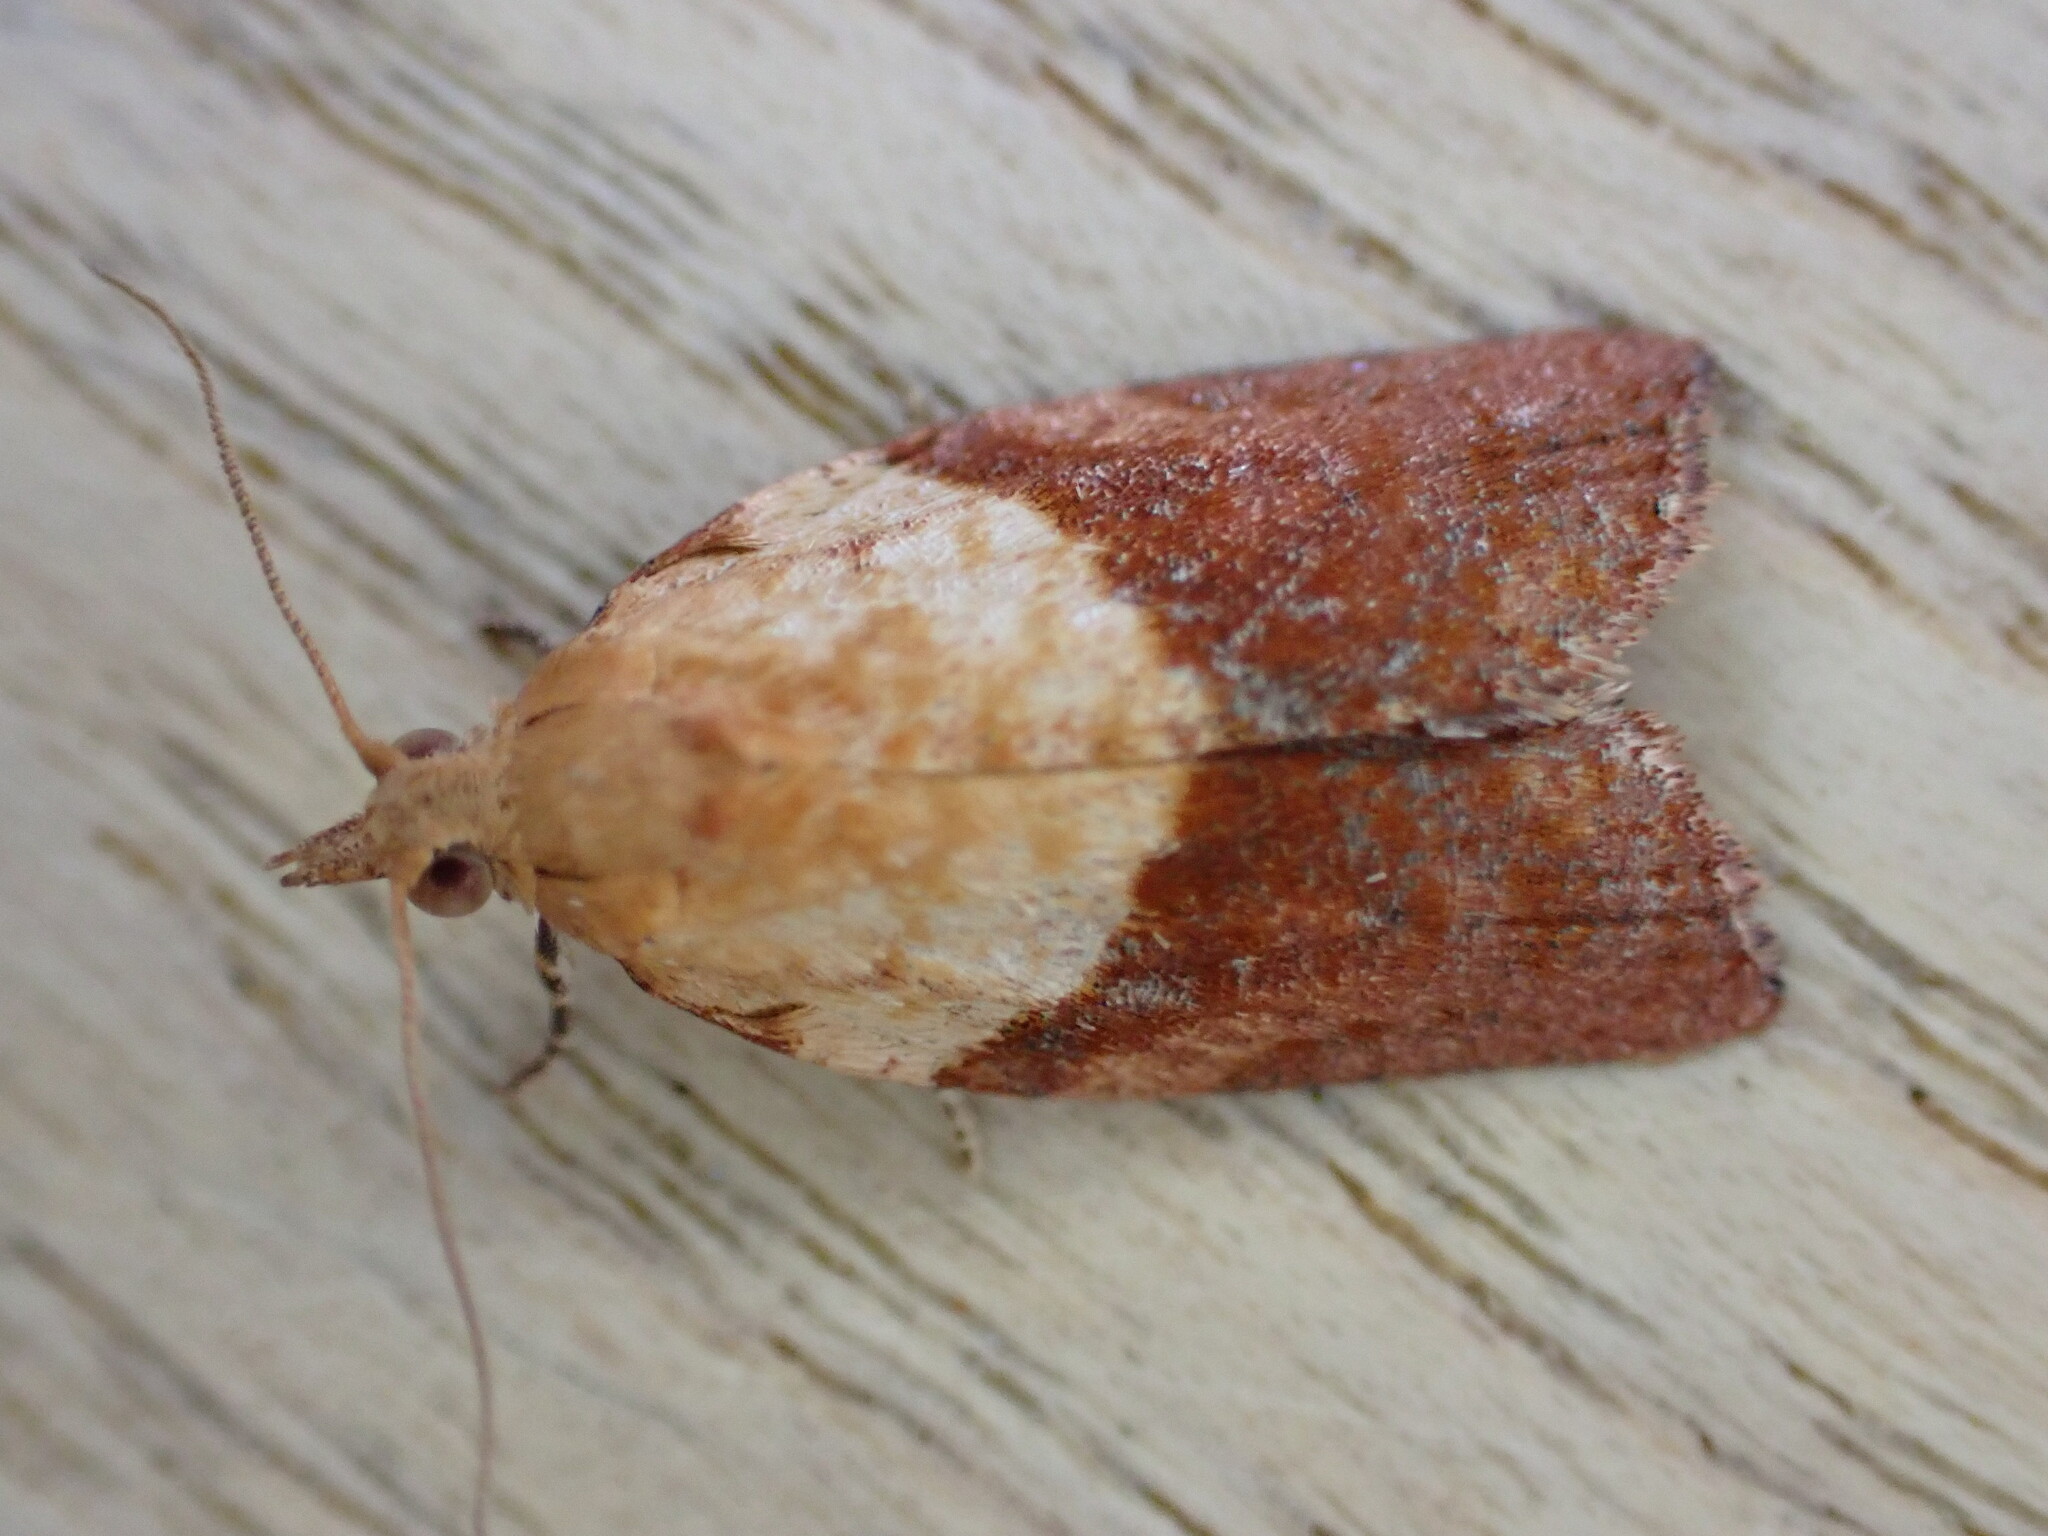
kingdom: Animalia
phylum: Arthropoda
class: Insecta
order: Lepidoptera
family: Tortricidae
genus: Epiphyas
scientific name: Epiphyas postvittana
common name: Light brown apple moth
